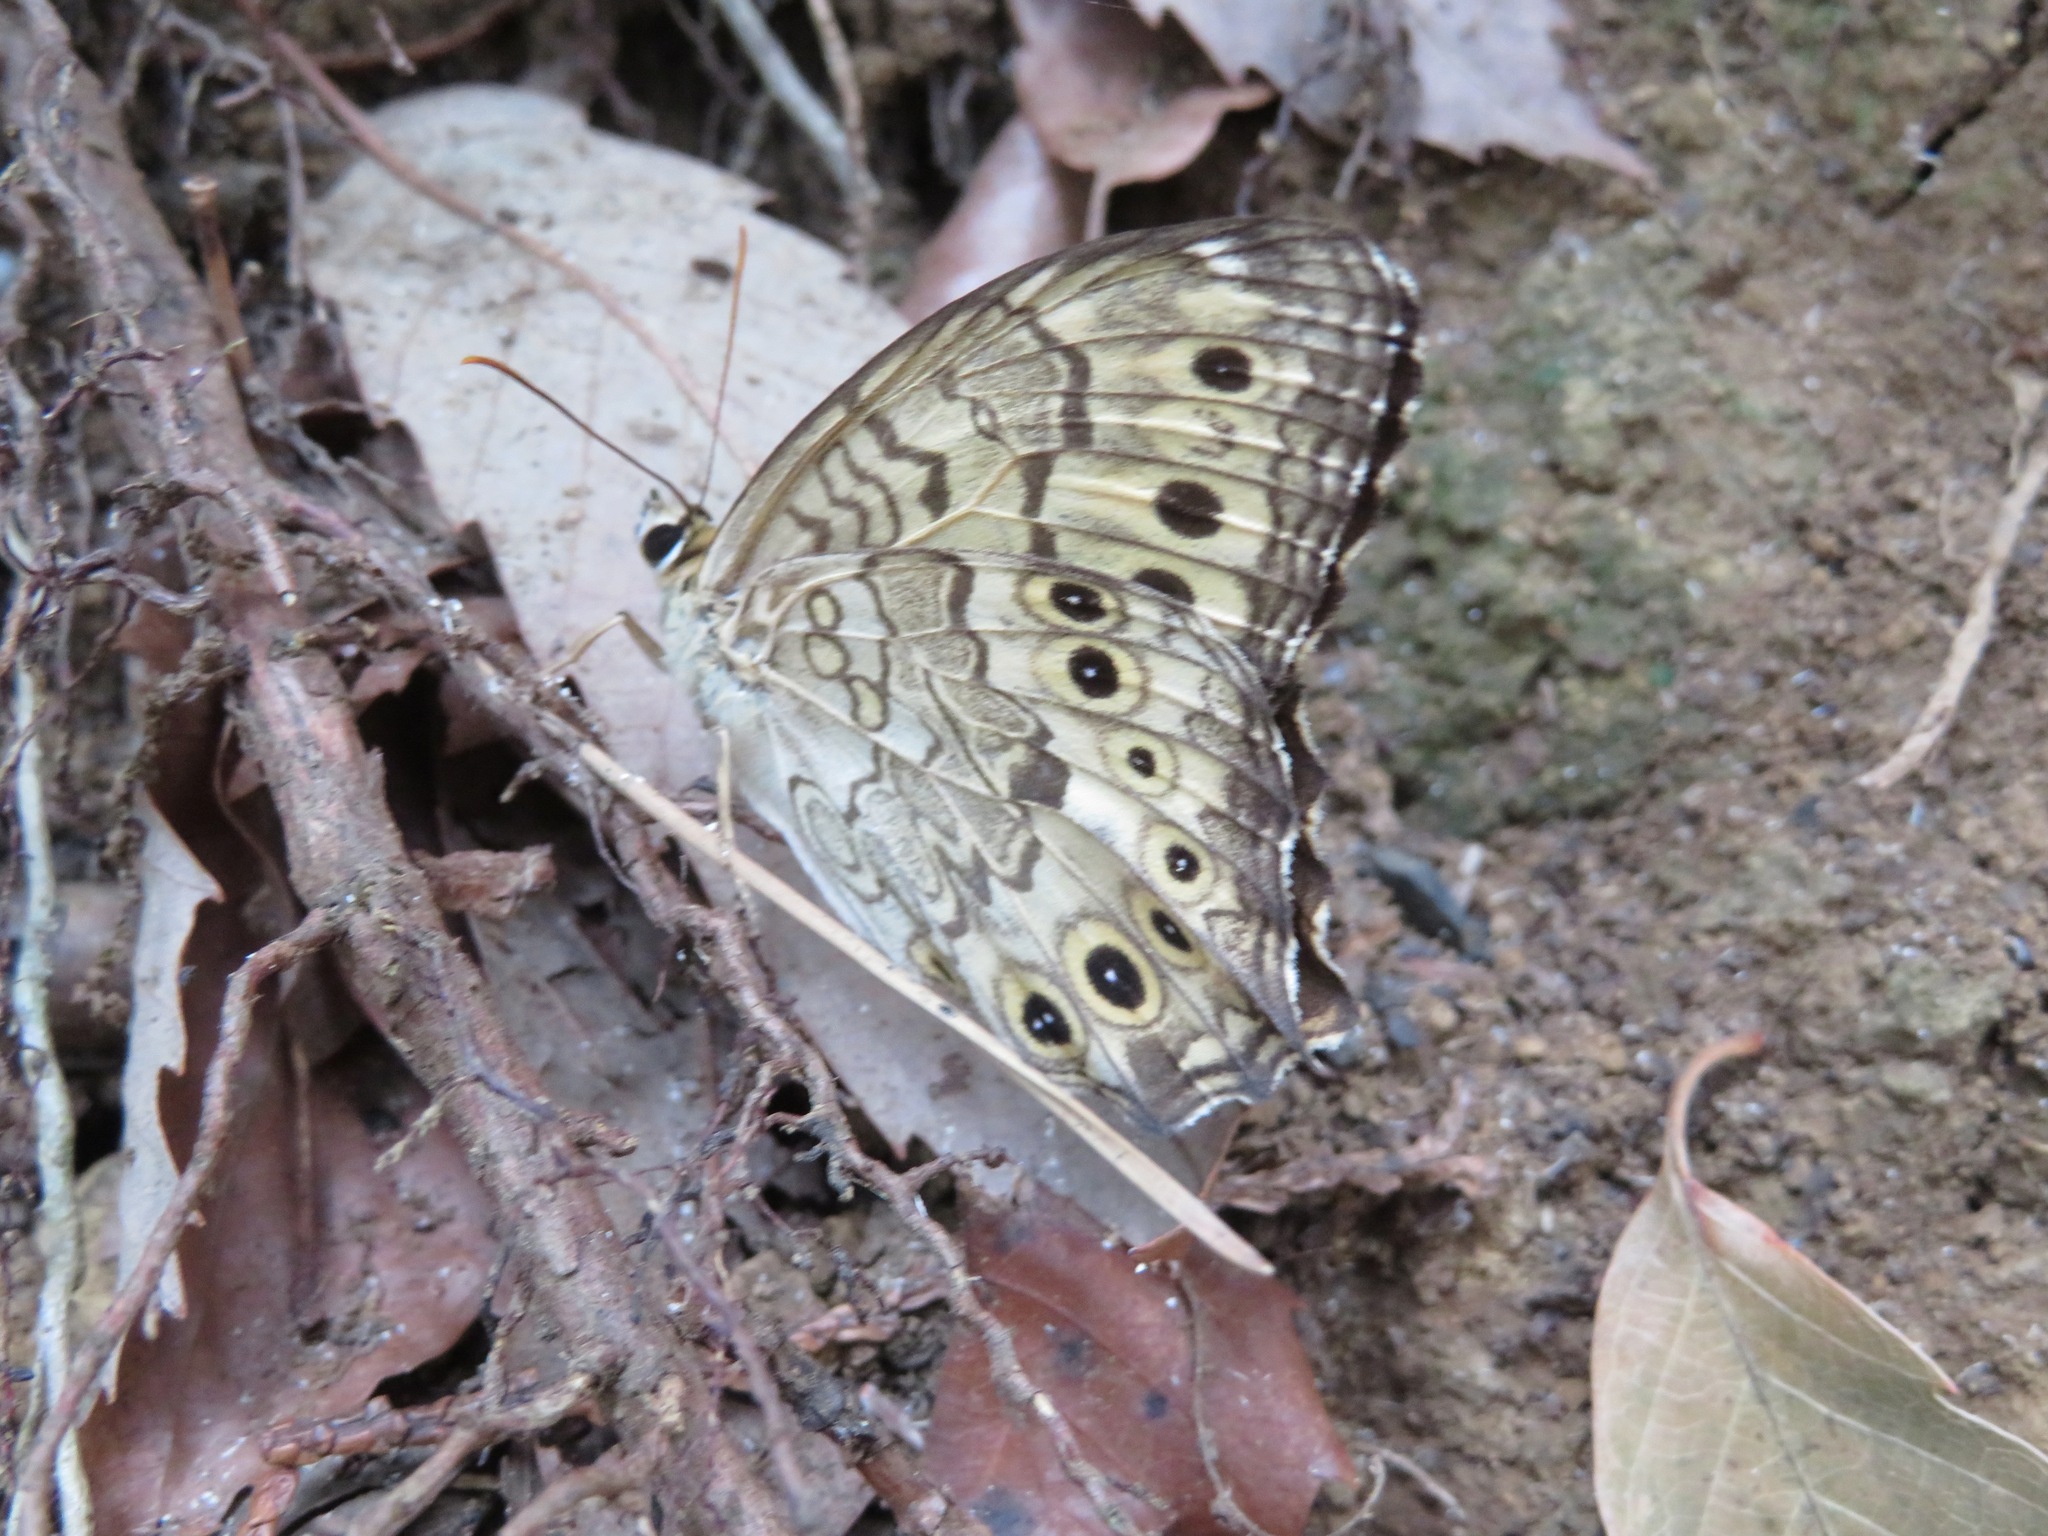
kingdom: Animalia
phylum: Arthropoda
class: Insecta
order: Lepidoptera
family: Nymphalidae
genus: Neope
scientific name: Neope goschkevitschii
